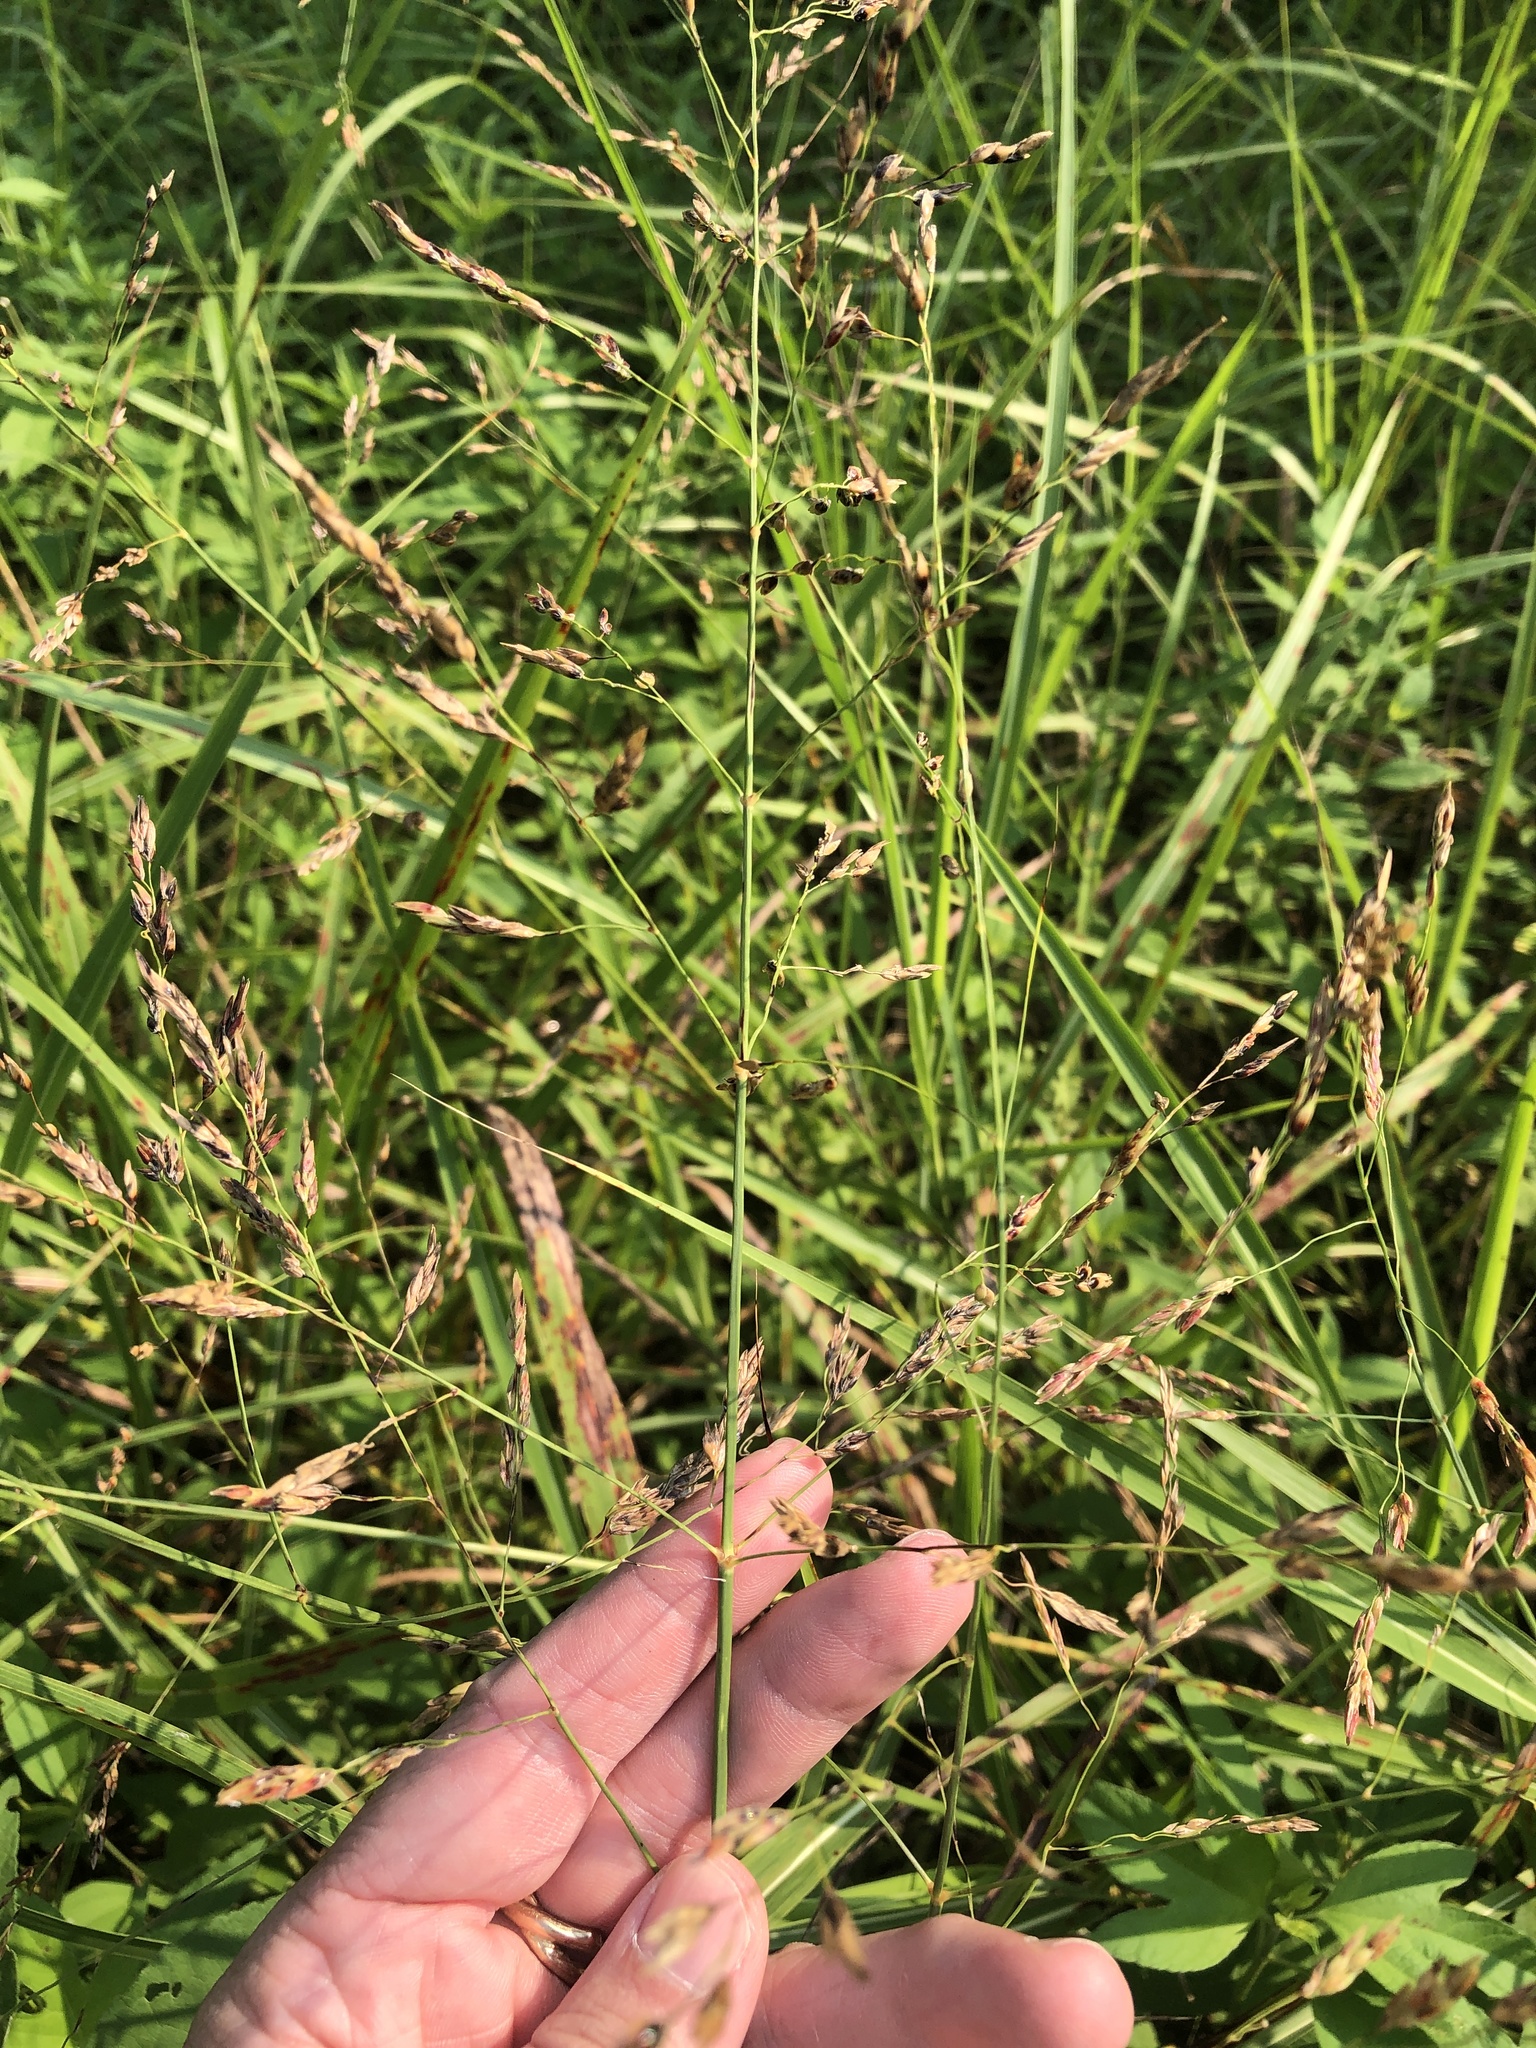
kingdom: Plantae
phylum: Tracheophyta
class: Liliopsida
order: Poales
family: Poaceae
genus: Sorghum
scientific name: Sorghum halepense
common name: Johnson-grass
